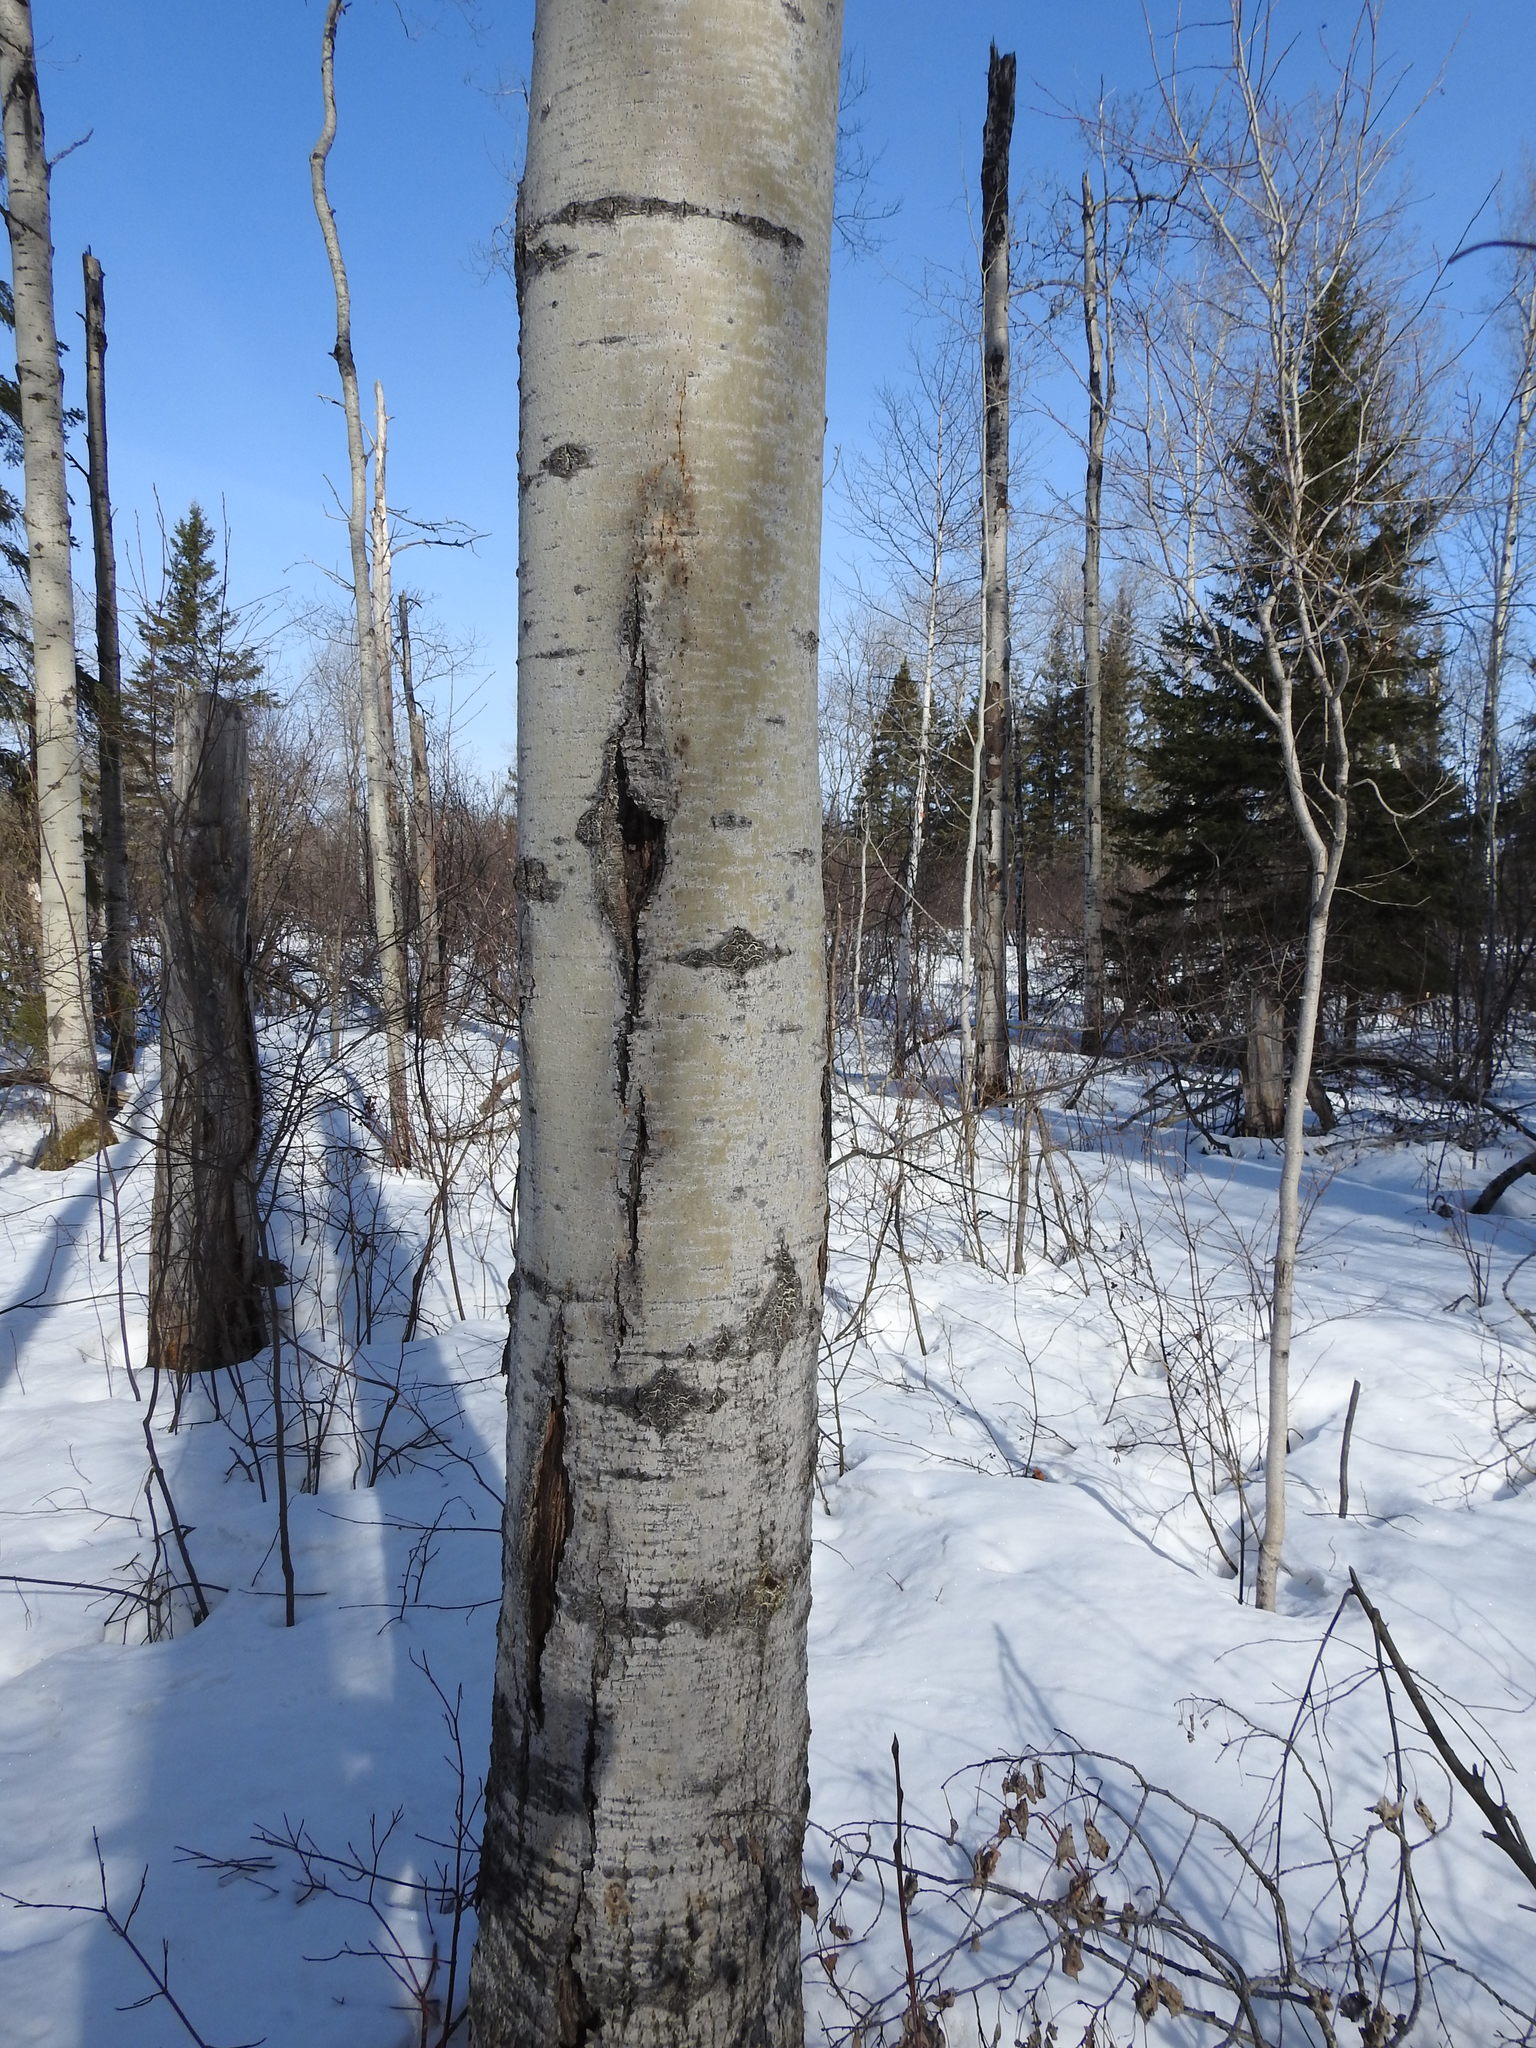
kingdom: Plantae
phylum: Tracheophyta
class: Magnoliopsida
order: Malpighiales
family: Salicaceae
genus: Populus
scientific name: Populus tremuloides
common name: Quaking aspen
